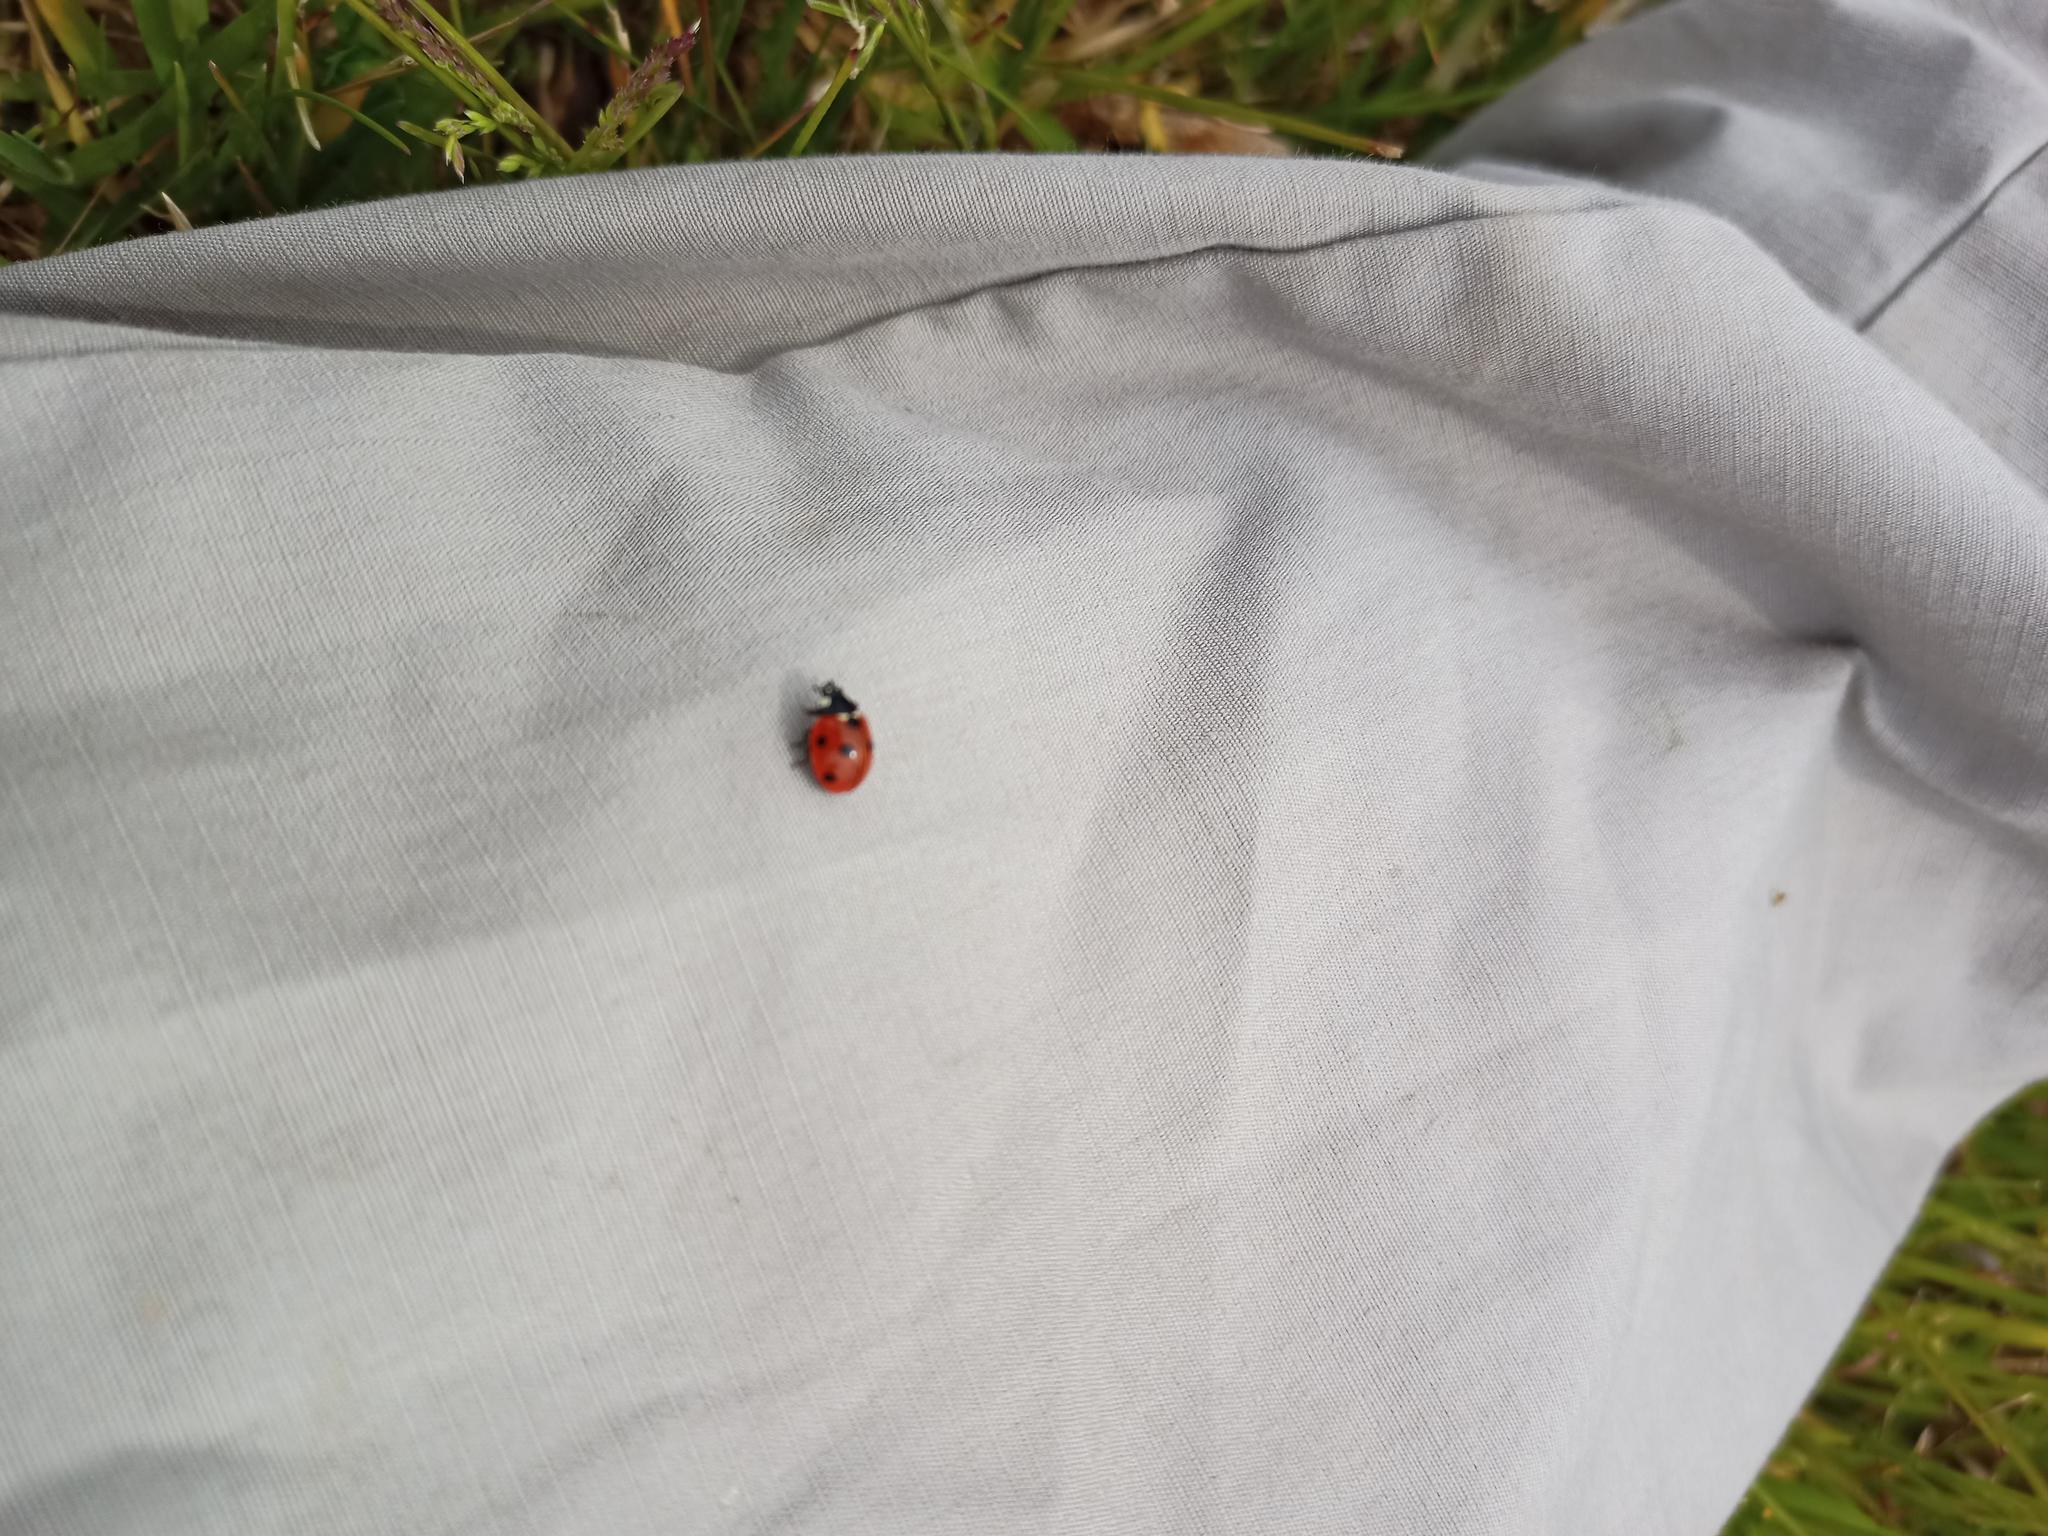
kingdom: Animalia
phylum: Arthropoda
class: Insecta
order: Coleoptera
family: Coccinellidae
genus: Coccinella
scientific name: Coccinella septempunctata
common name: Sevenspotted lady beetle
